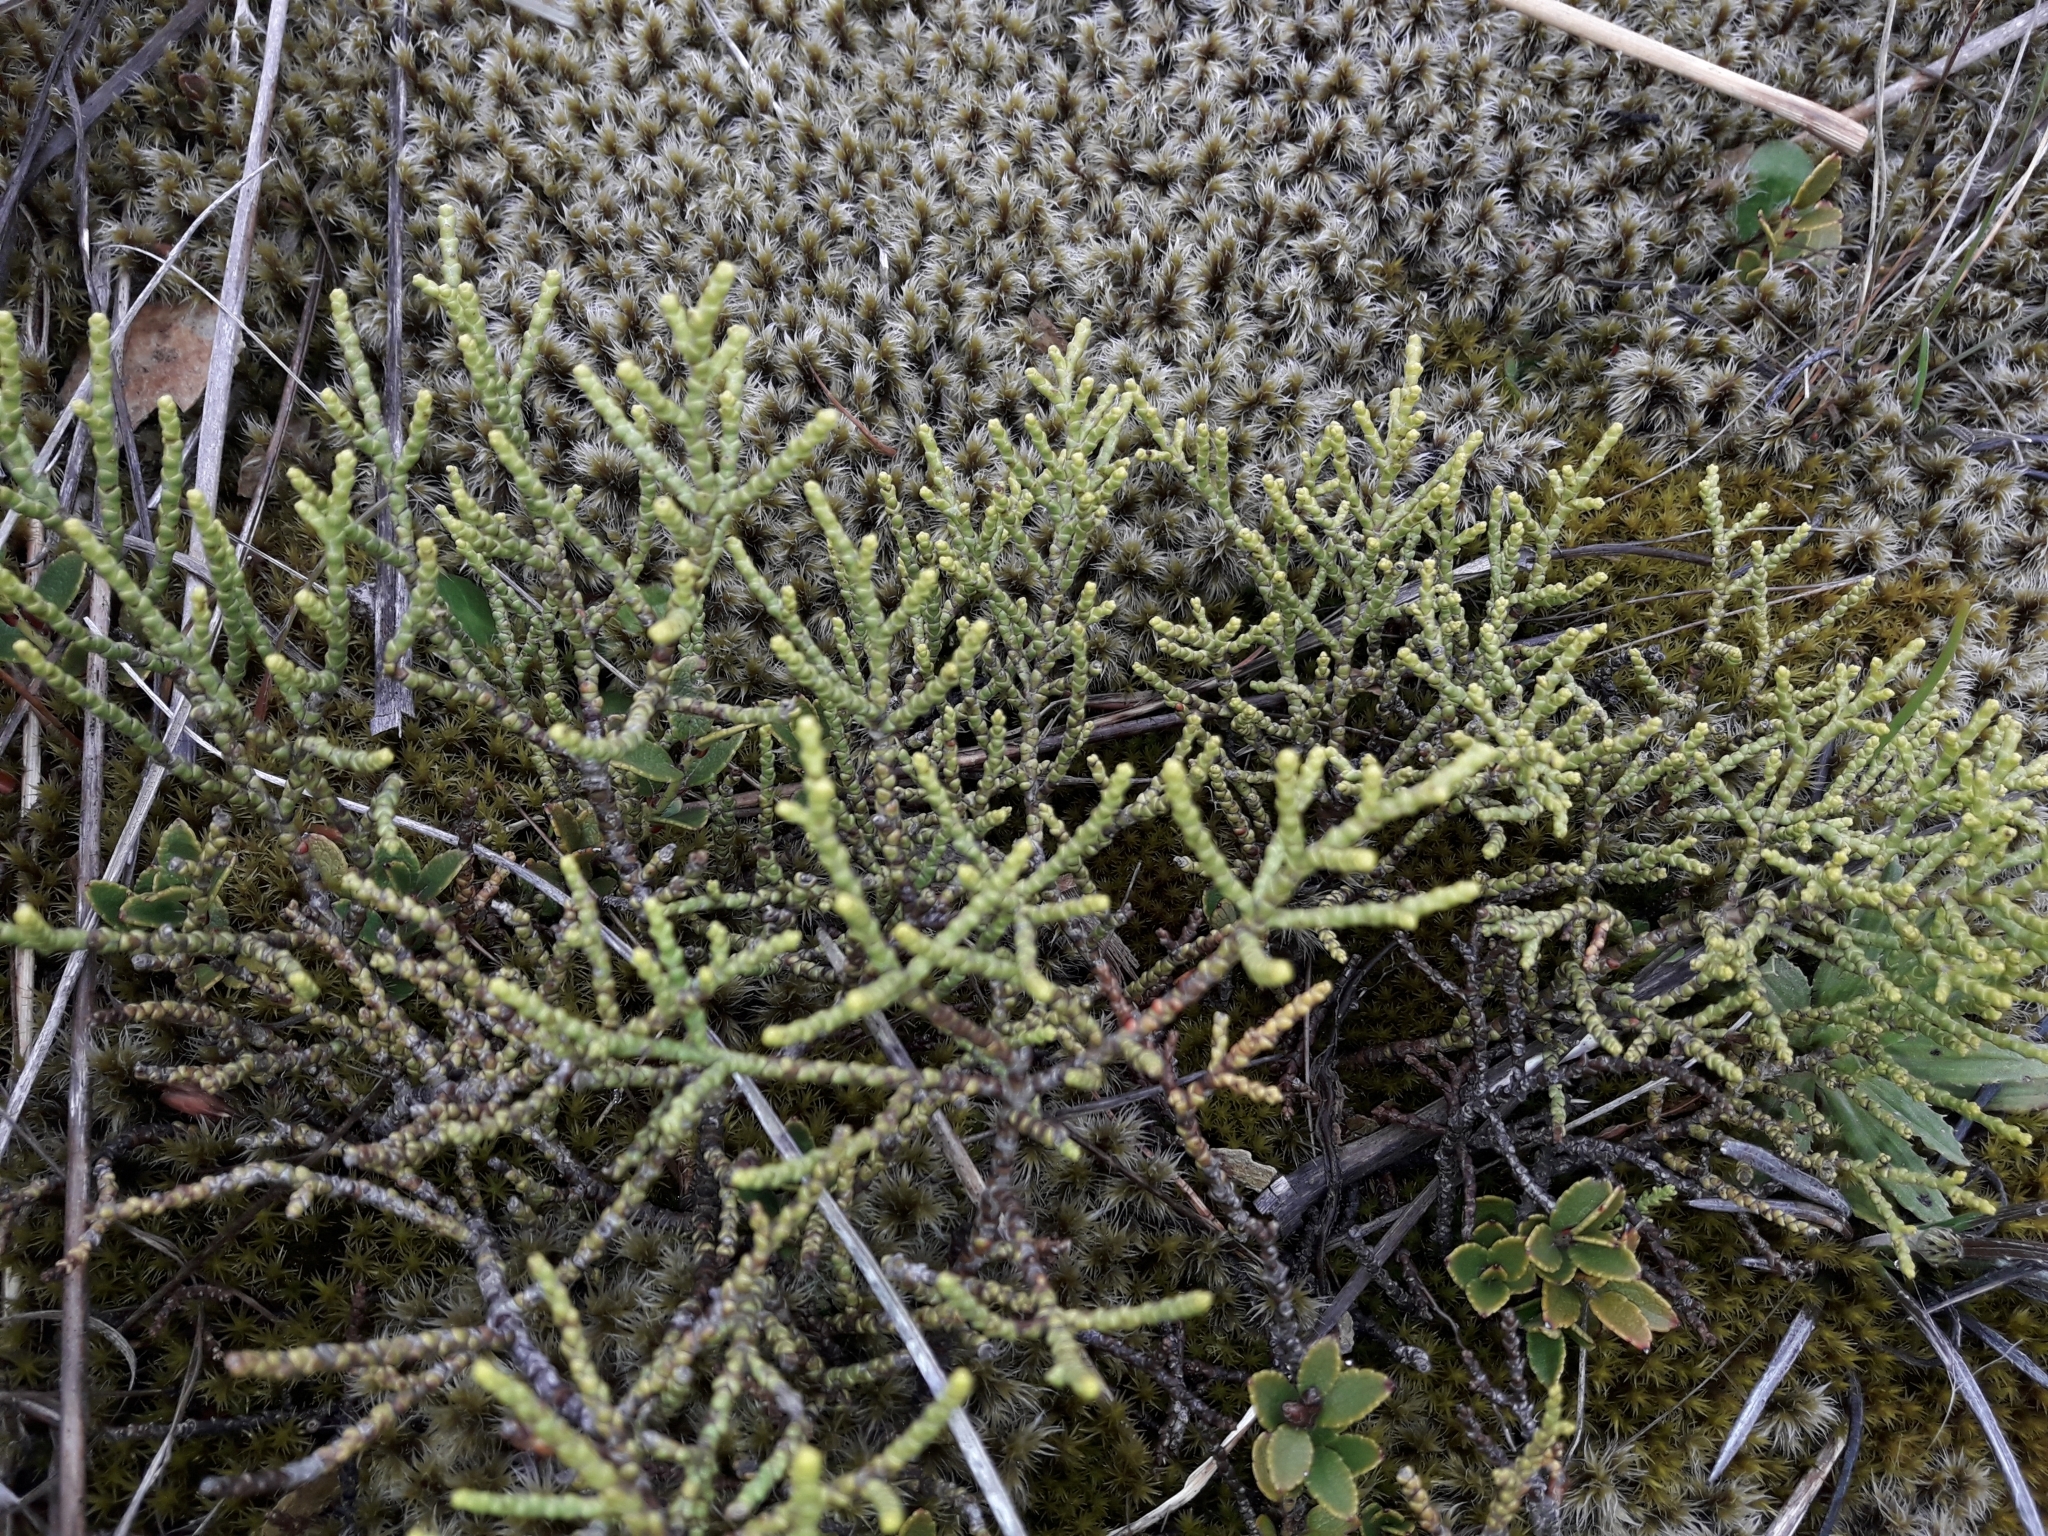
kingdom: Plantae
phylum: Tracheophyta
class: Magnoliopsida
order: Lamiales
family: Plantaginaceae
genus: Veronica
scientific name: Veronica propinqua
